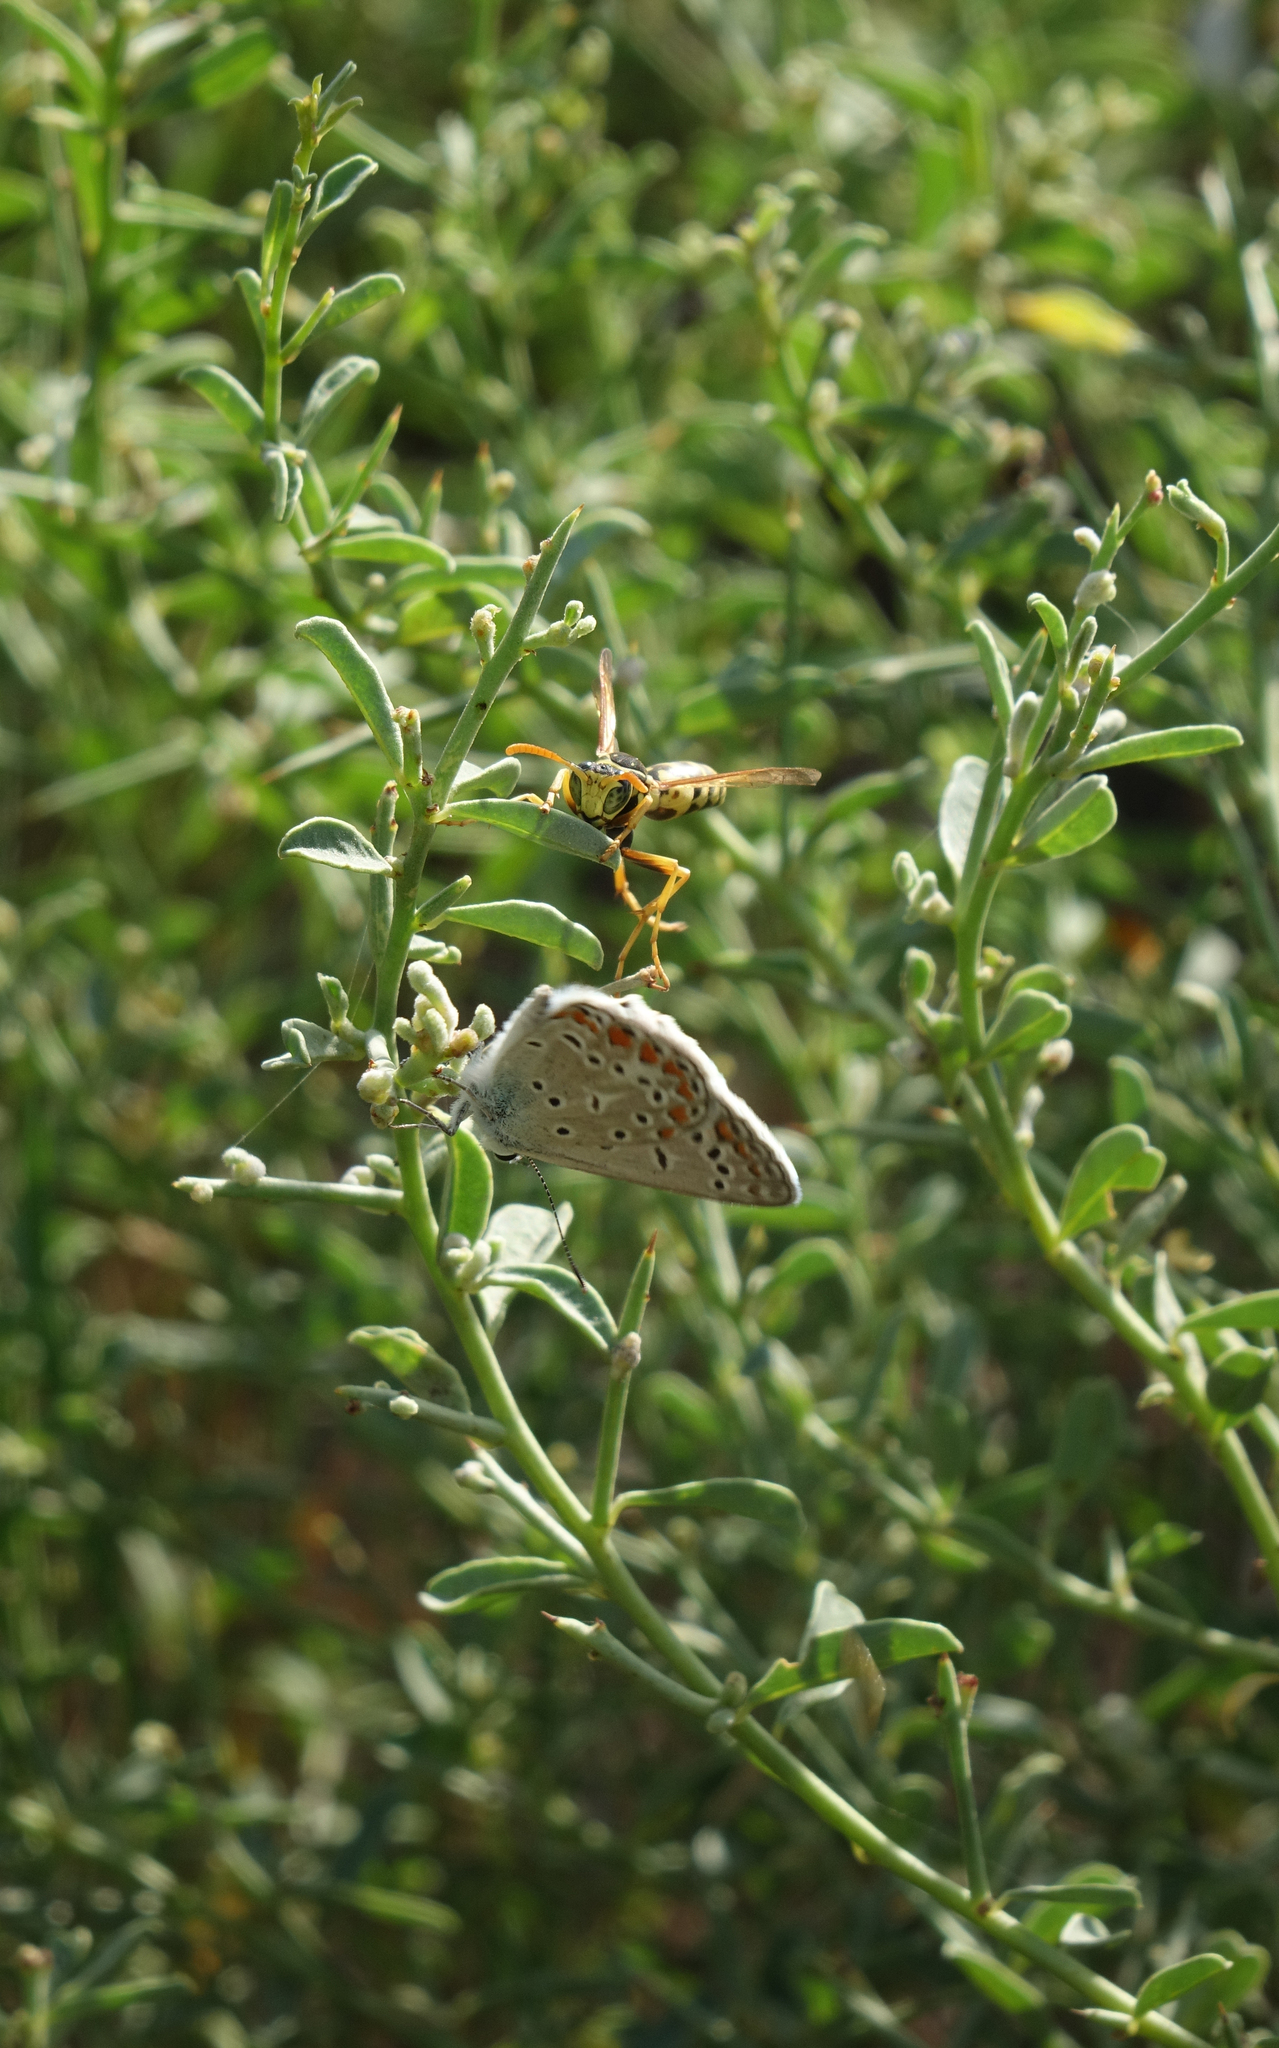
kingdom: Plantae
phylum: Tracheophyta
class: Magnoliopsida
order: Fabales
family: Fabaceae
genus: Alhagi
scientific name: Alhagi pseudalhagi
